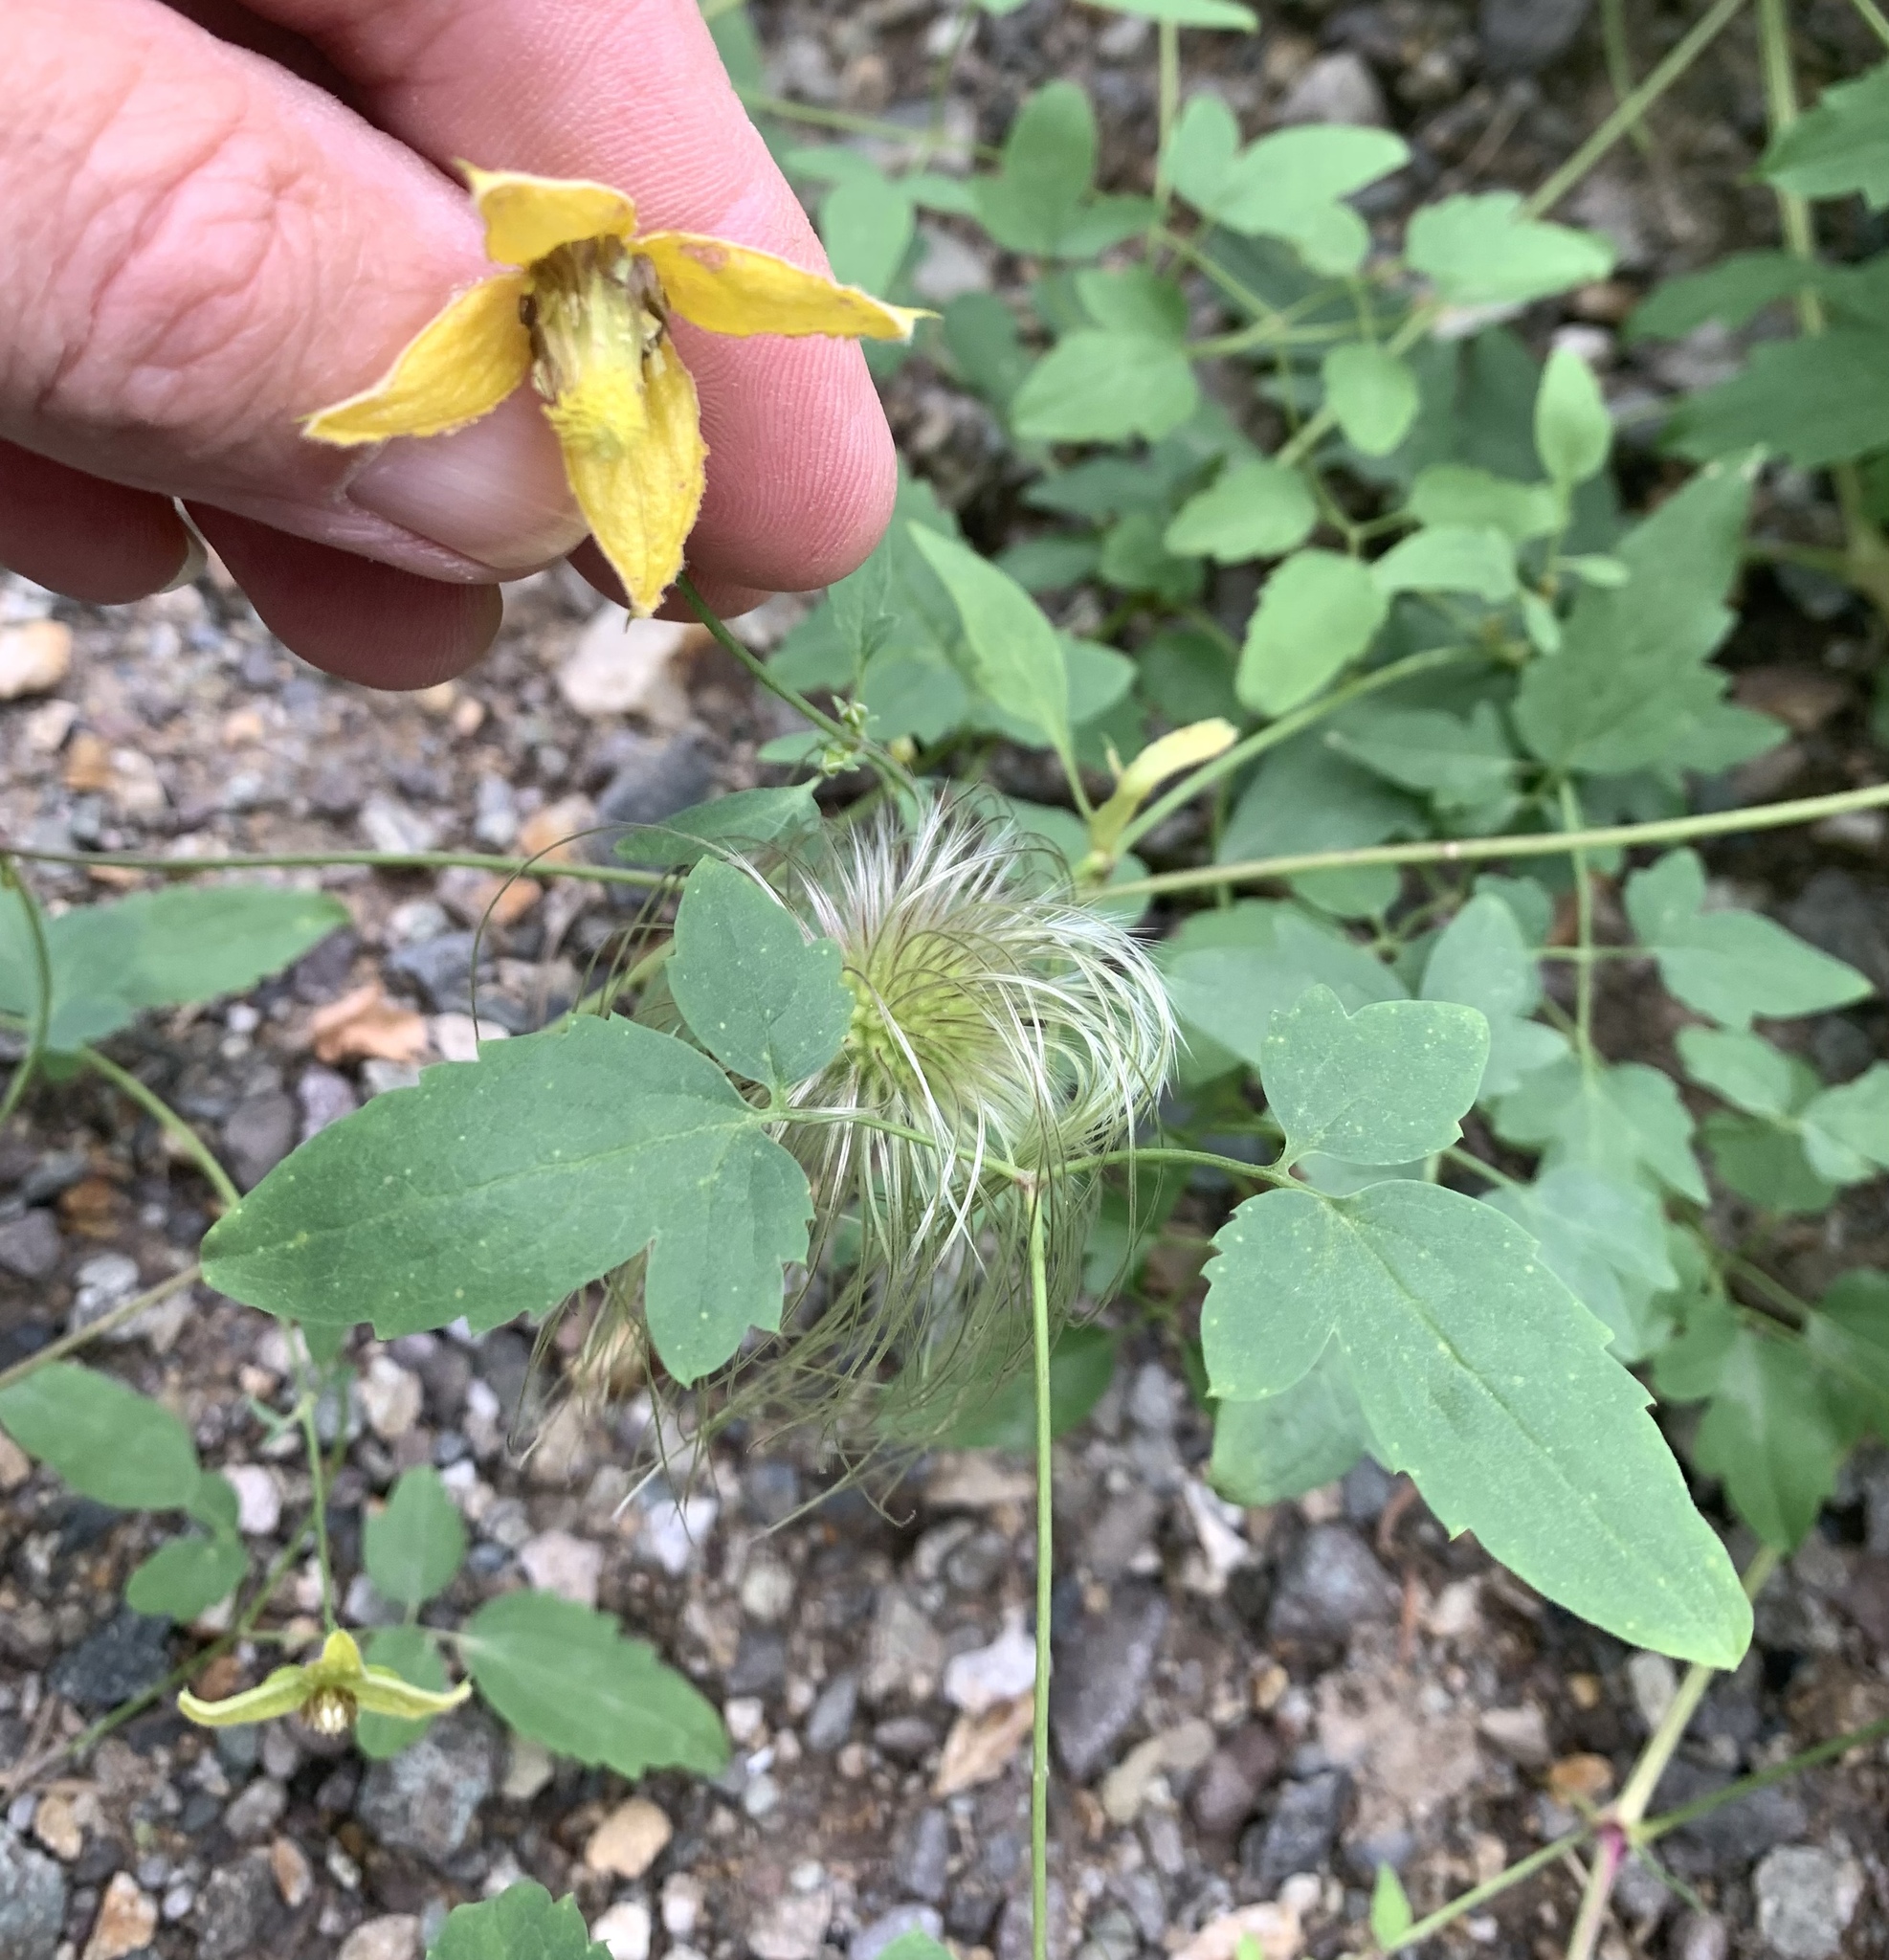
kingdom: Plantae
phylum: Tracheophyta
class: Magnoliopsida
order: Ranunculales
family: Ranunculaceae
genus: Clematis
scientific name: Clematis orientalis
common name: Oriental virgin's-bower
